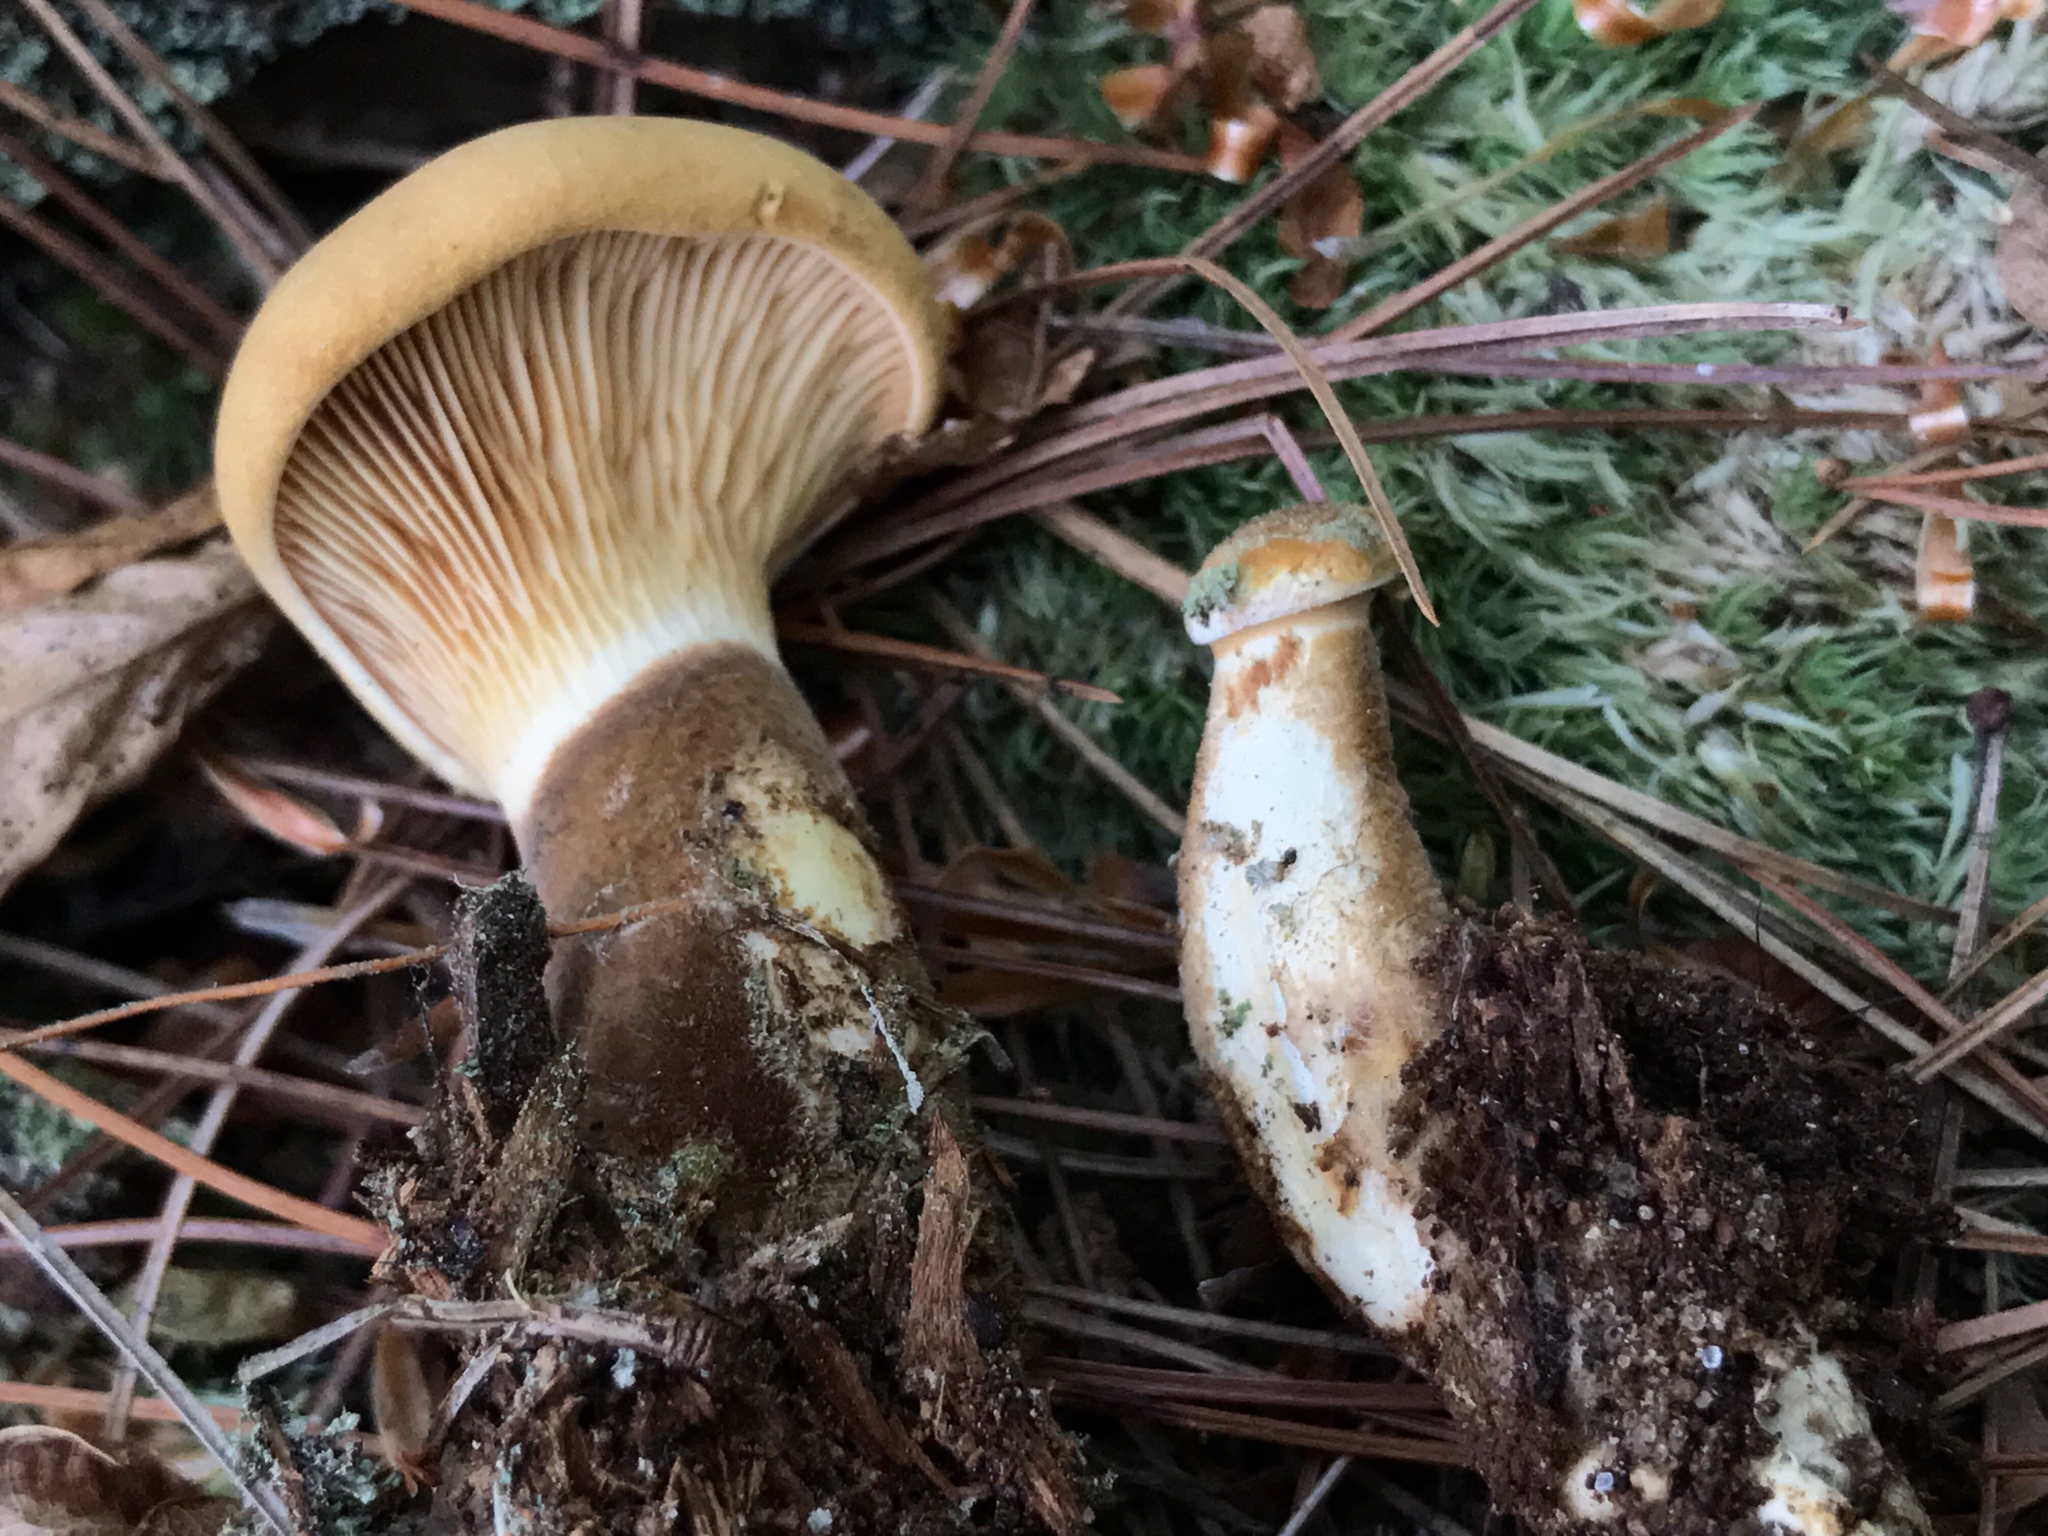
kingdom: Fungi
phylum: Basidiomycota
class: Agaricomycetes
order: Boletales
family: Tapinellaceae
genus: Tapinella
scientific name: Tapinella atrotomentosa
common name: Velvet rollrim
